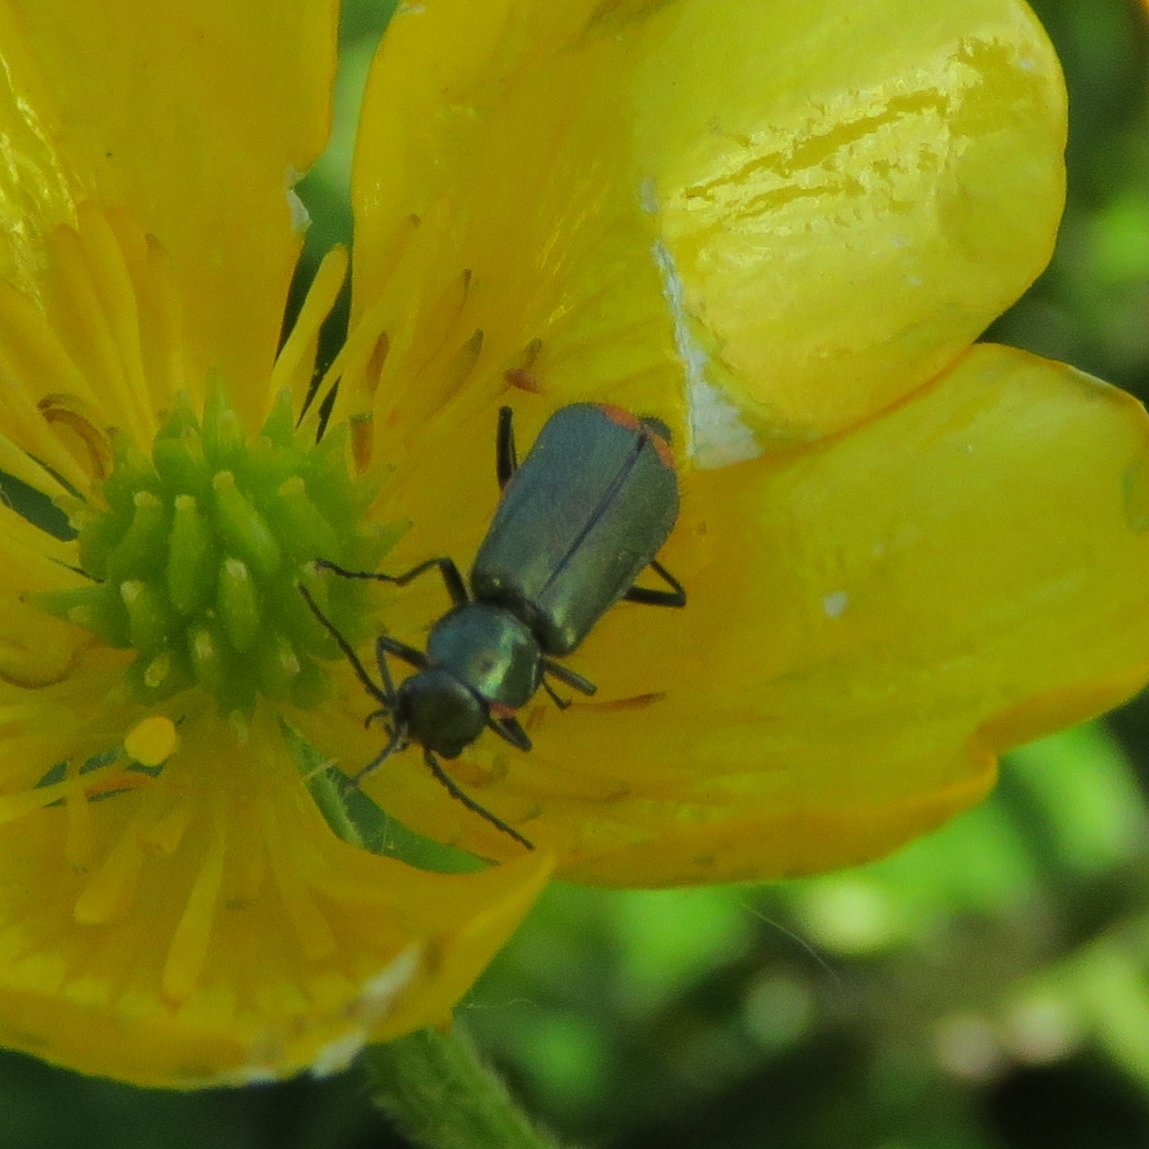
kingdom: Animalia
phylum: Arthropoda
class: Insecta
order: Coleoptera
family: Melyridae
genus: Malachius
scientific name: Malachius bipustulatus
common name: Malachite beetle
